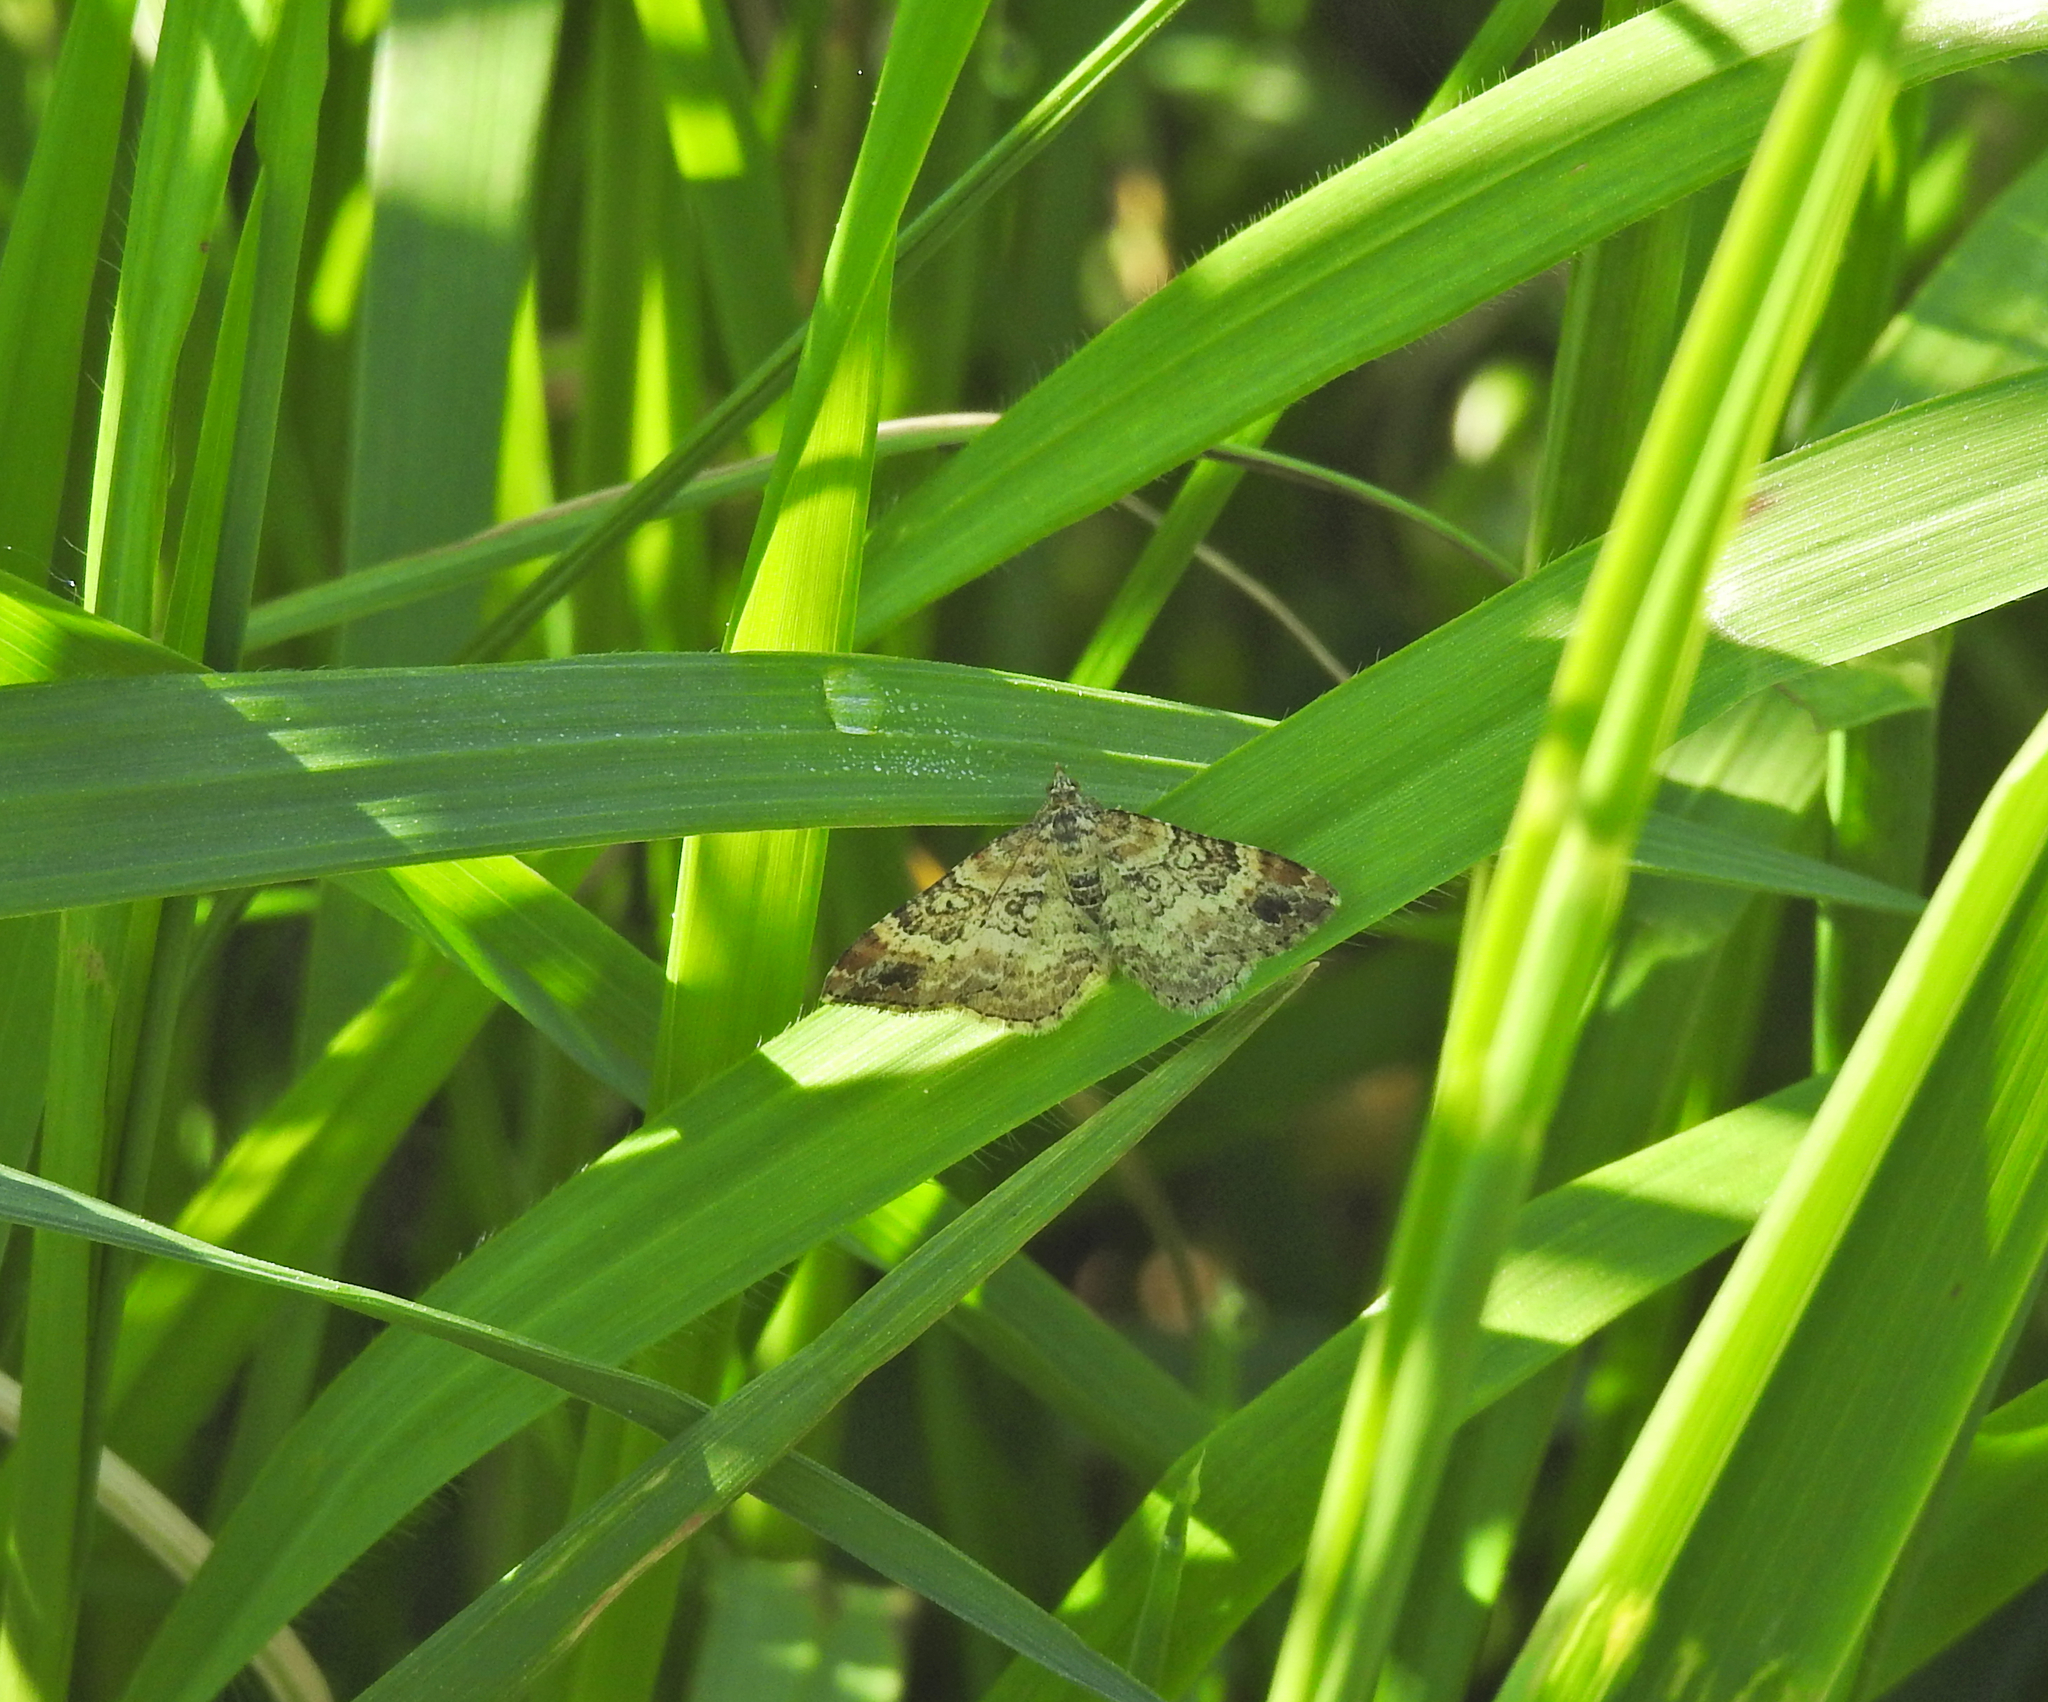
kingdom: Animalia
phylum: Arthropoda
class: Insecta
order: Lepidoptera
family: Geometridae
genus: Xanthorhoe
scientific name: Xanthorhoe spadicearia
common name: Red twin-spot carpet
